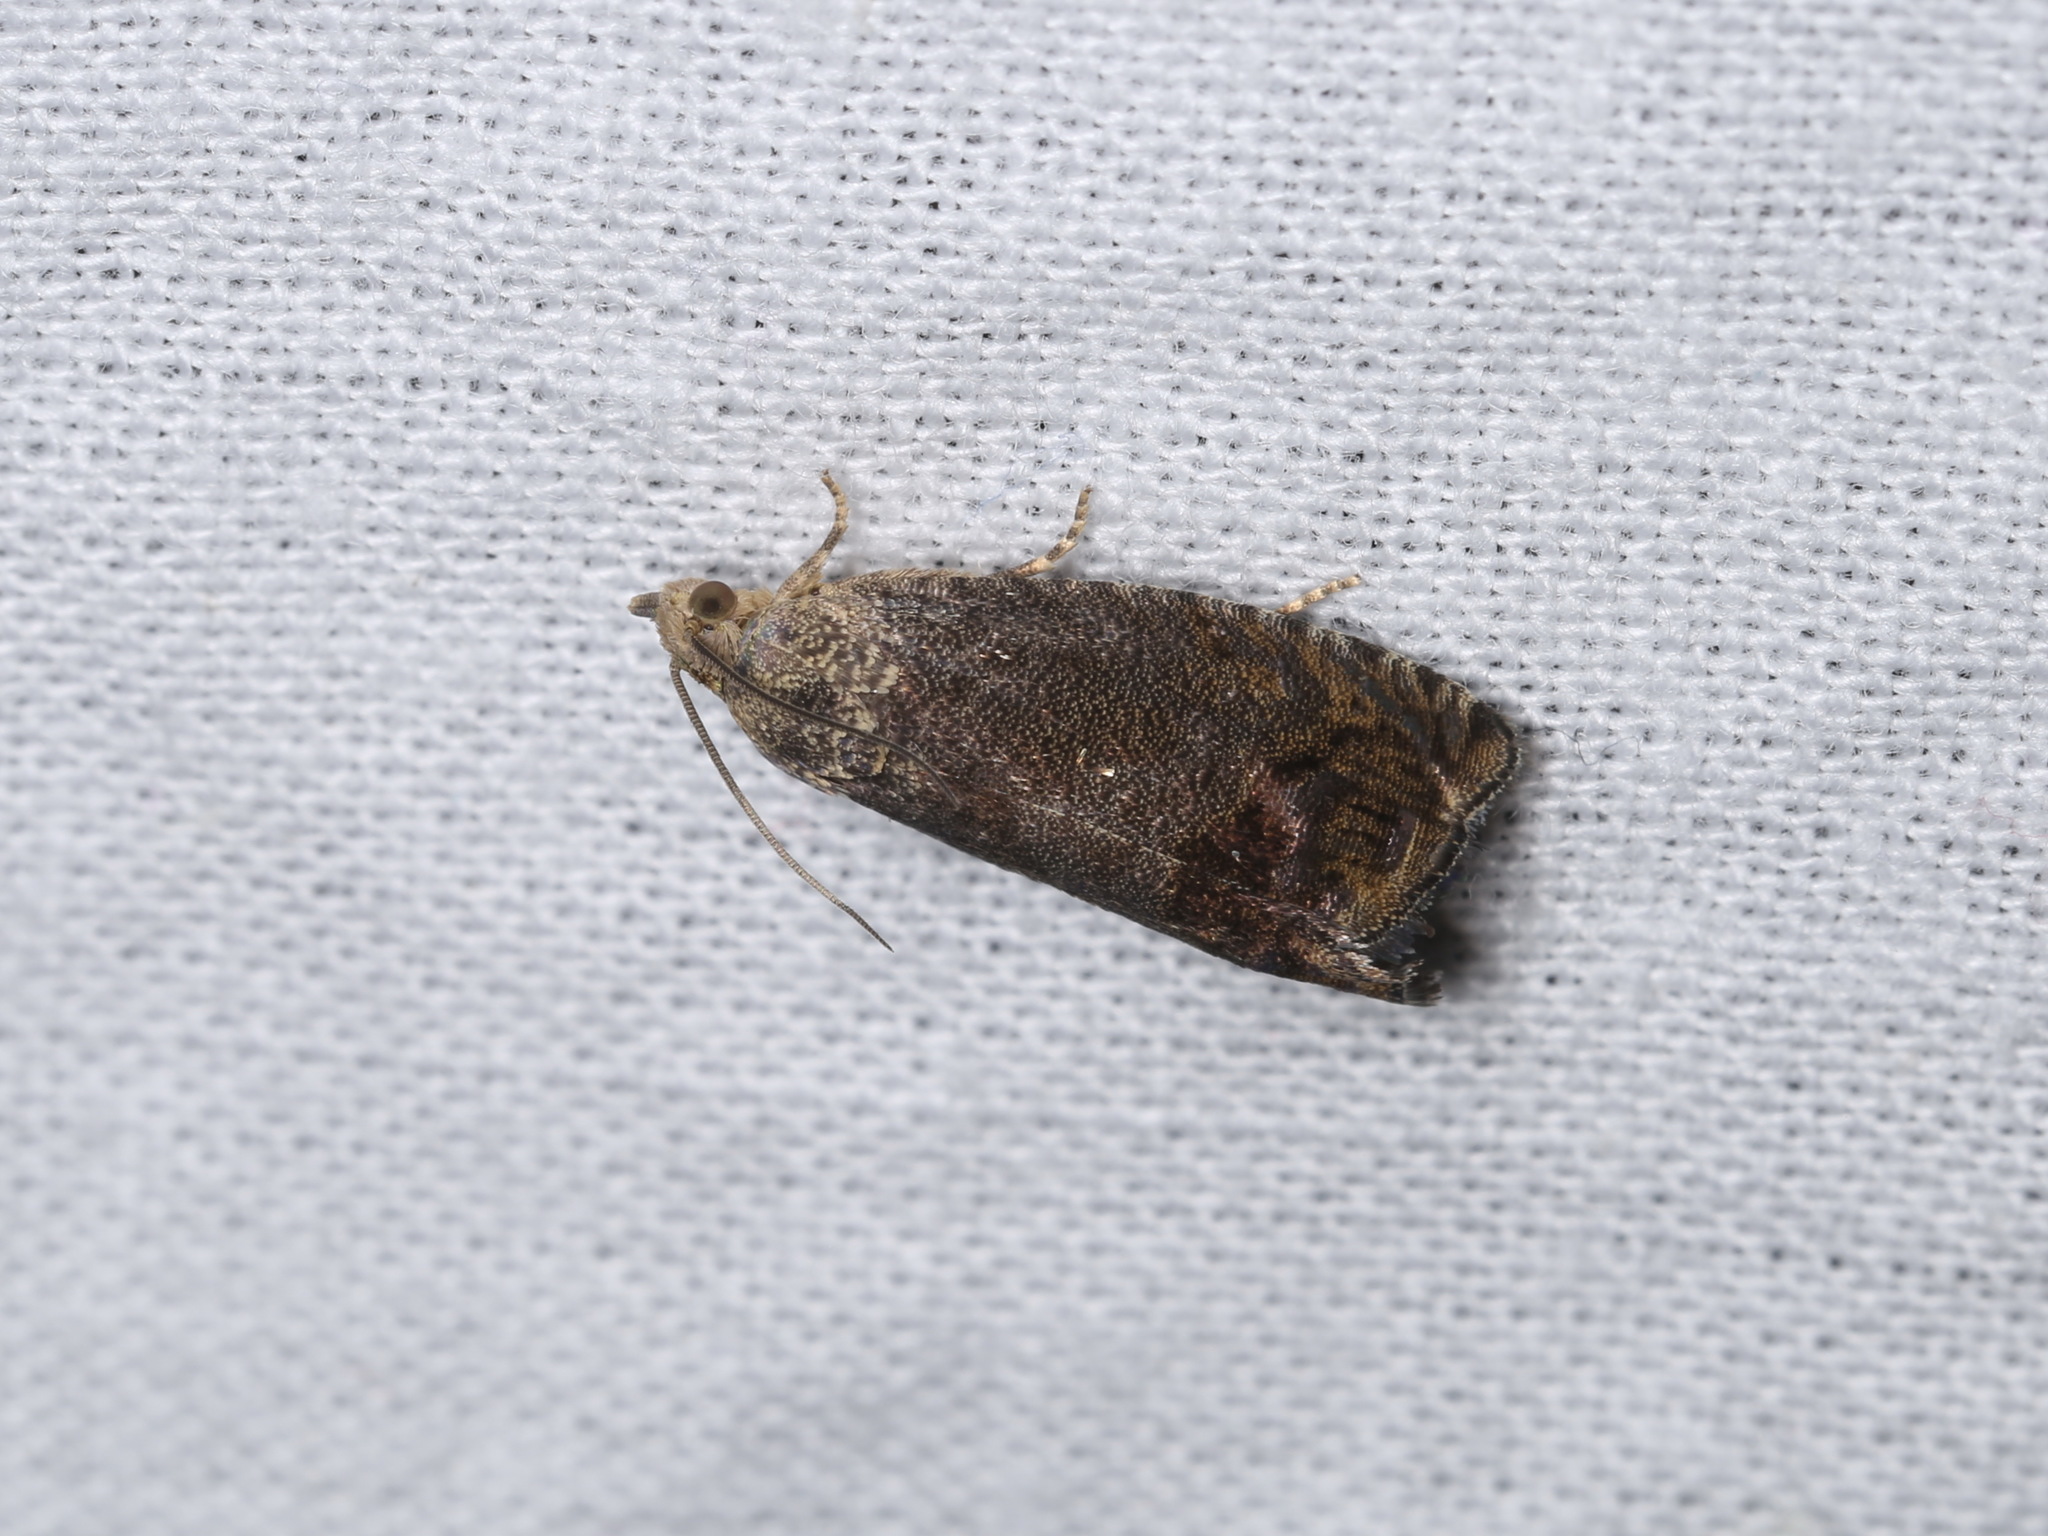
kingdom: Animalia
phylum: Arthropoda
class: Insecta
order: Lepidoptera
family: Tortricidae
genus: Cydia
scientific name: Cydia splendana
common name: De: kastanienwickler, eichenwickler es: oruga de la castaña fr: carpocapse des châtaignes it: cidia o tortrice tardiva delle castagne pt: bichado das castanhas gb: acorn moth, chestnut fruit tortrix
